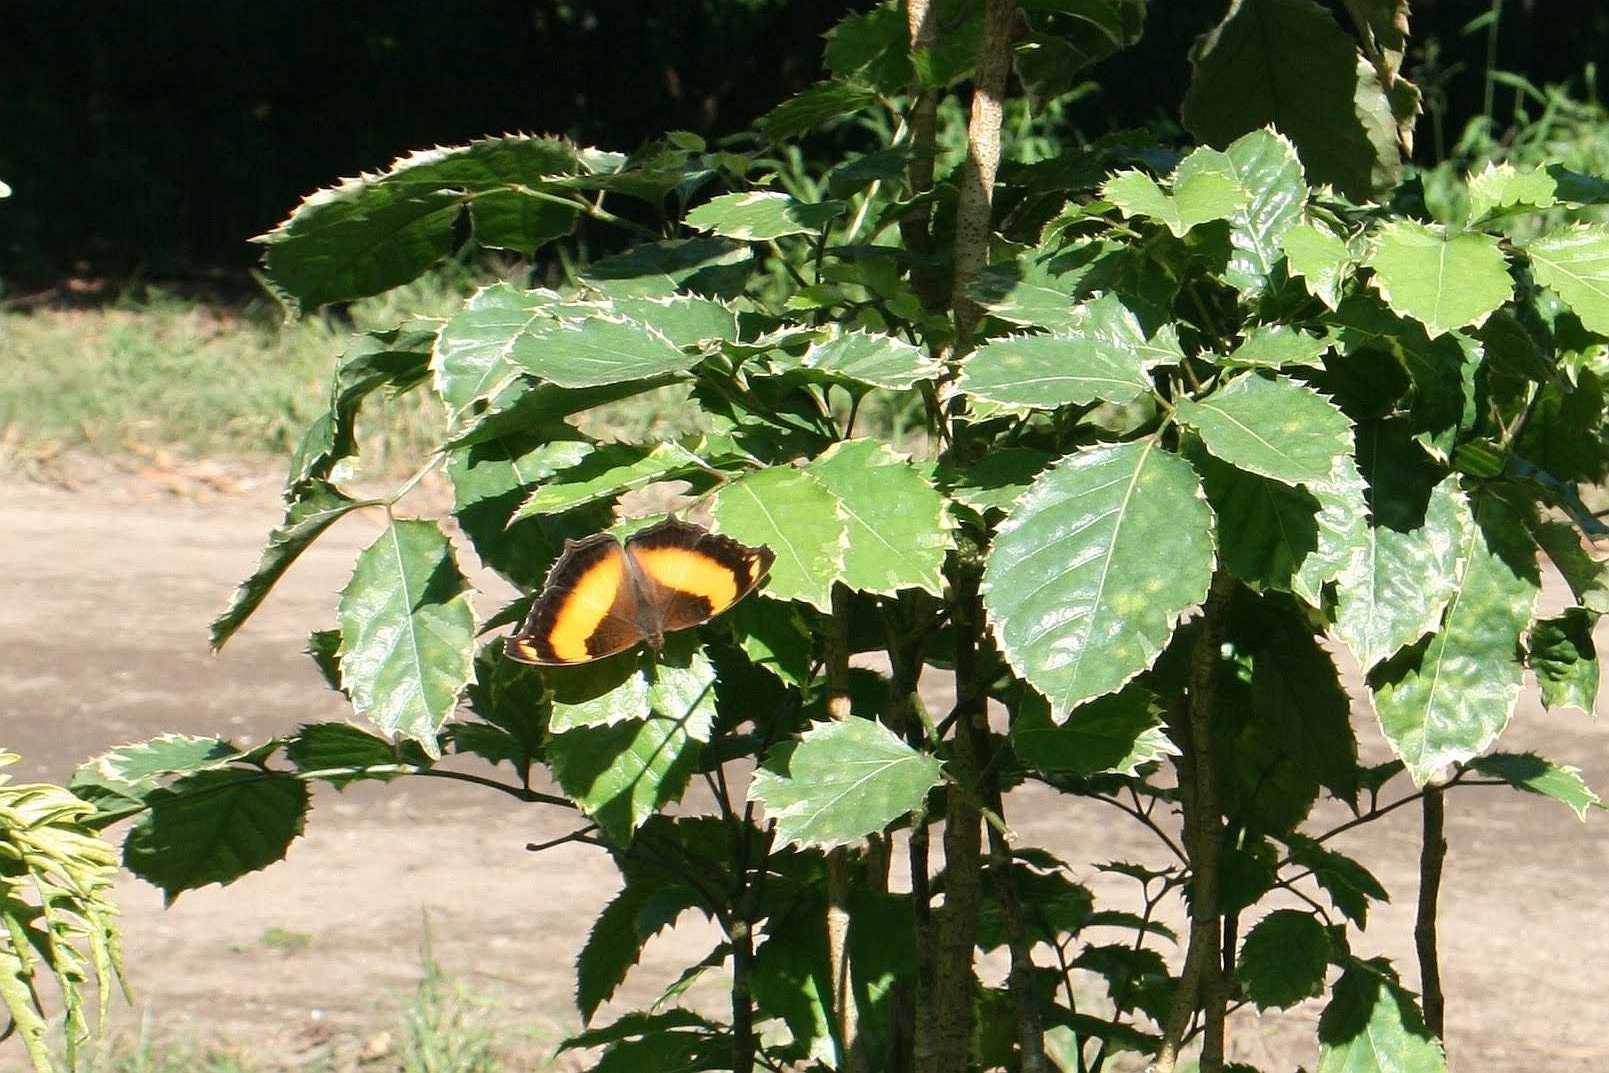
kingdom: Animalia
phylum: Arthropoda
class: Insecta
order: Lepidoptera
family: Nymphalidae
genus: Yoma
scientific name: Yoma sabina
